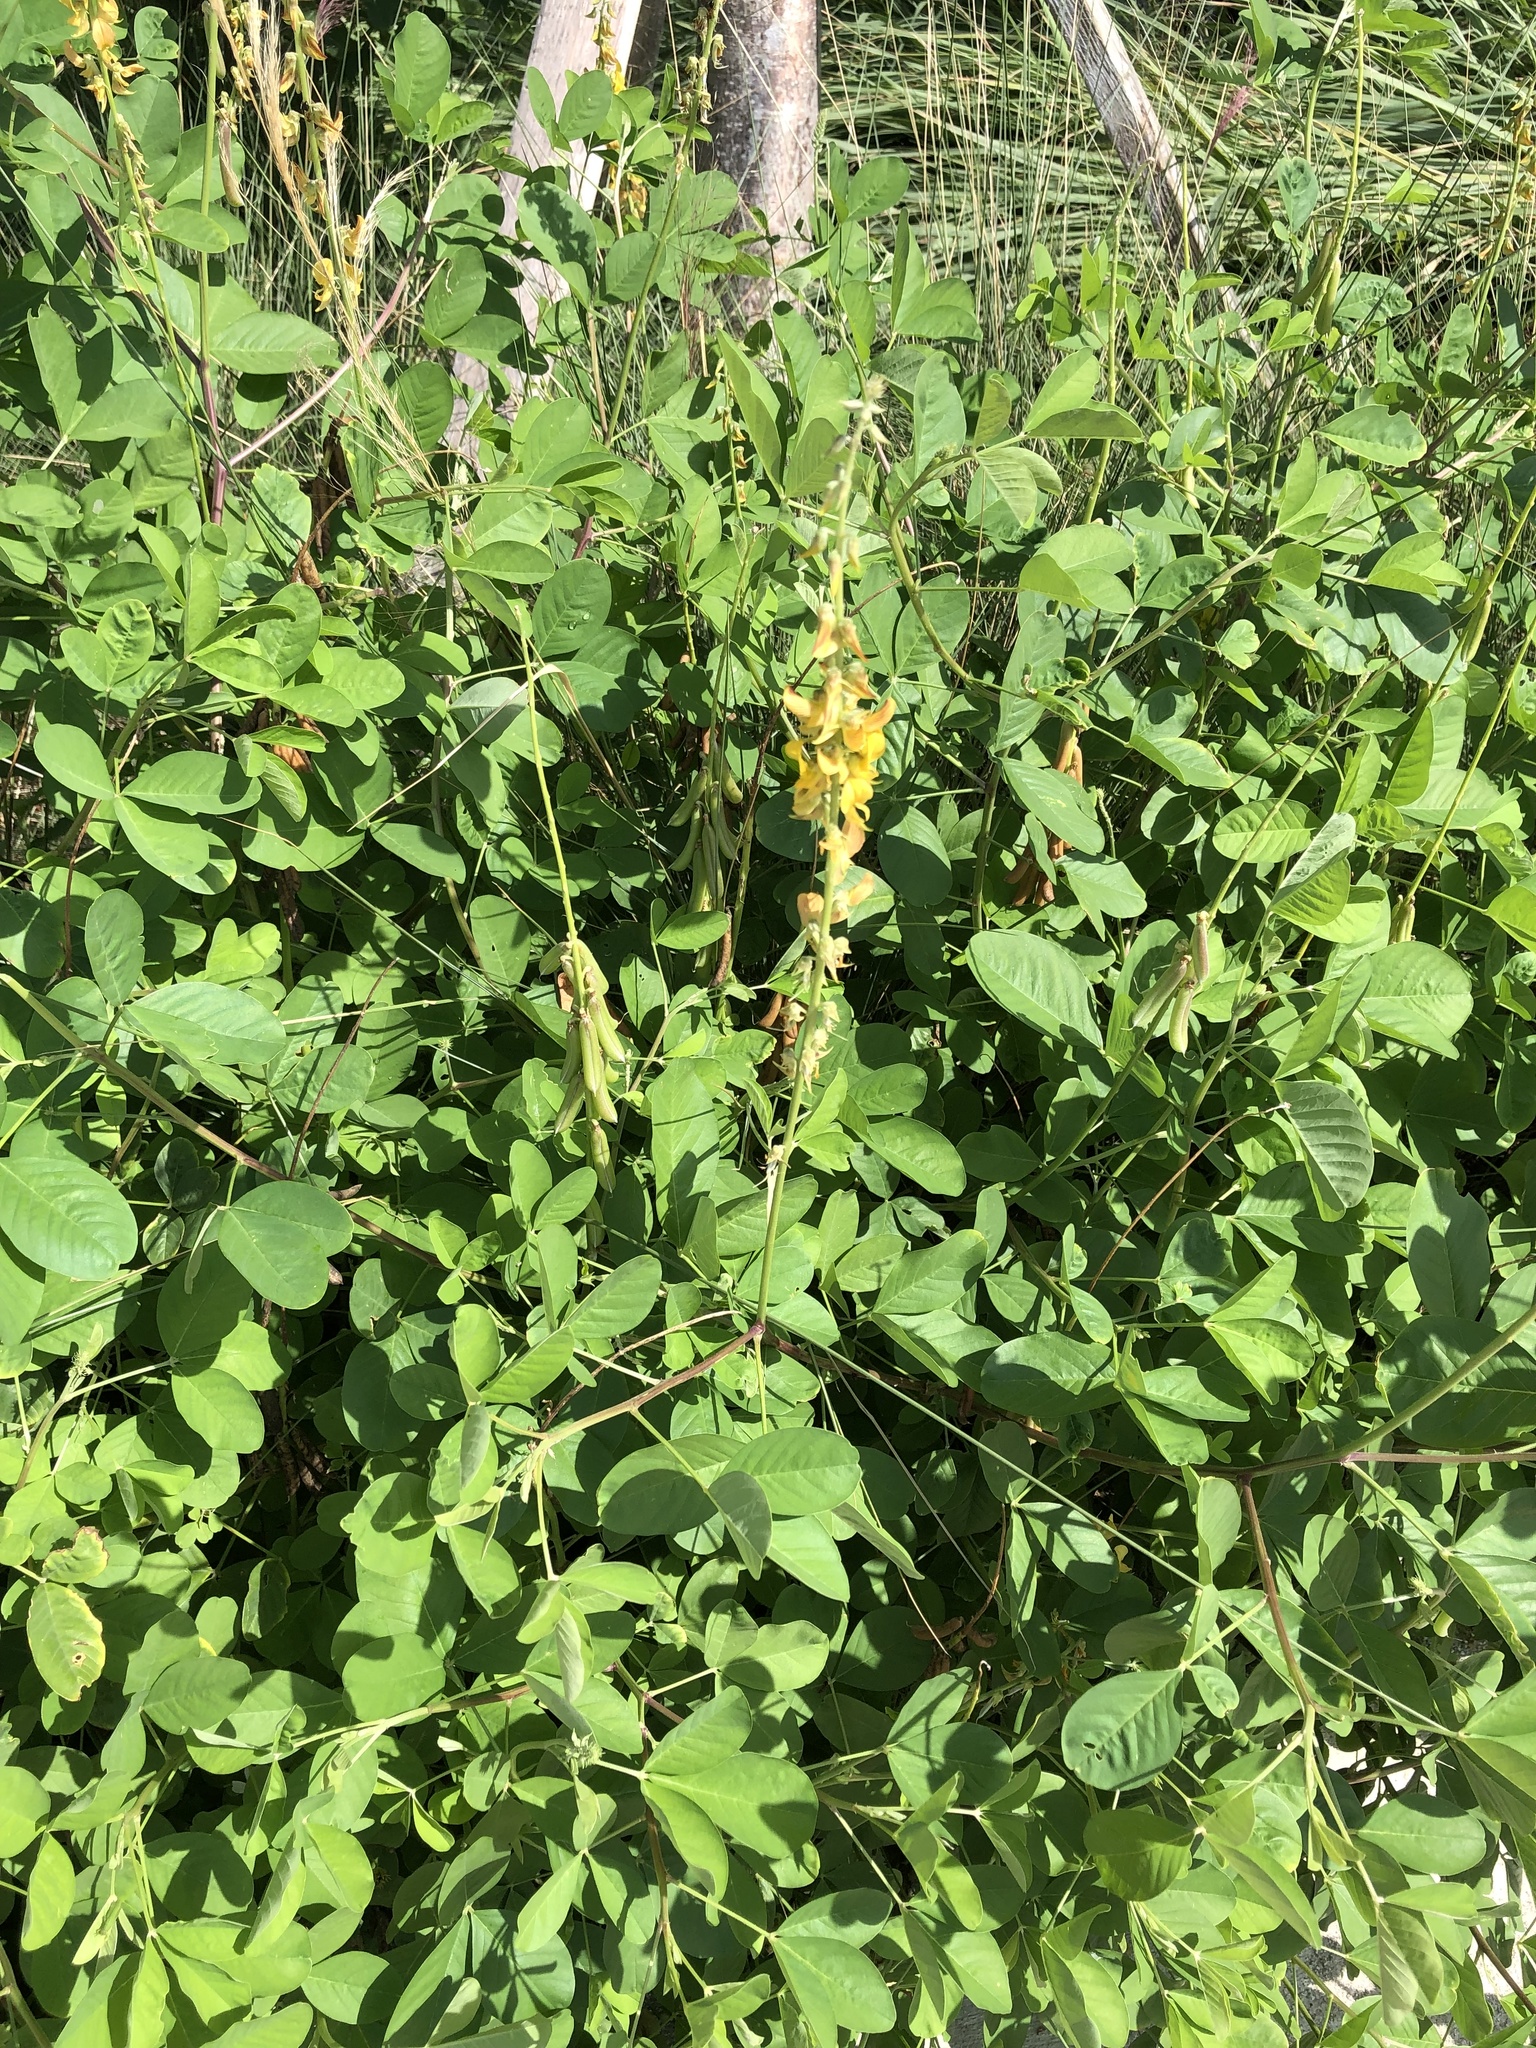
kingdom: Plantae
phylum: Tracheophyta
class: Magnoliopsida
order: Fabales
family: Fabaceae
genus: Crotalaria
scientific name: Crotalaria pallida
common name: Smooth rattlebox
